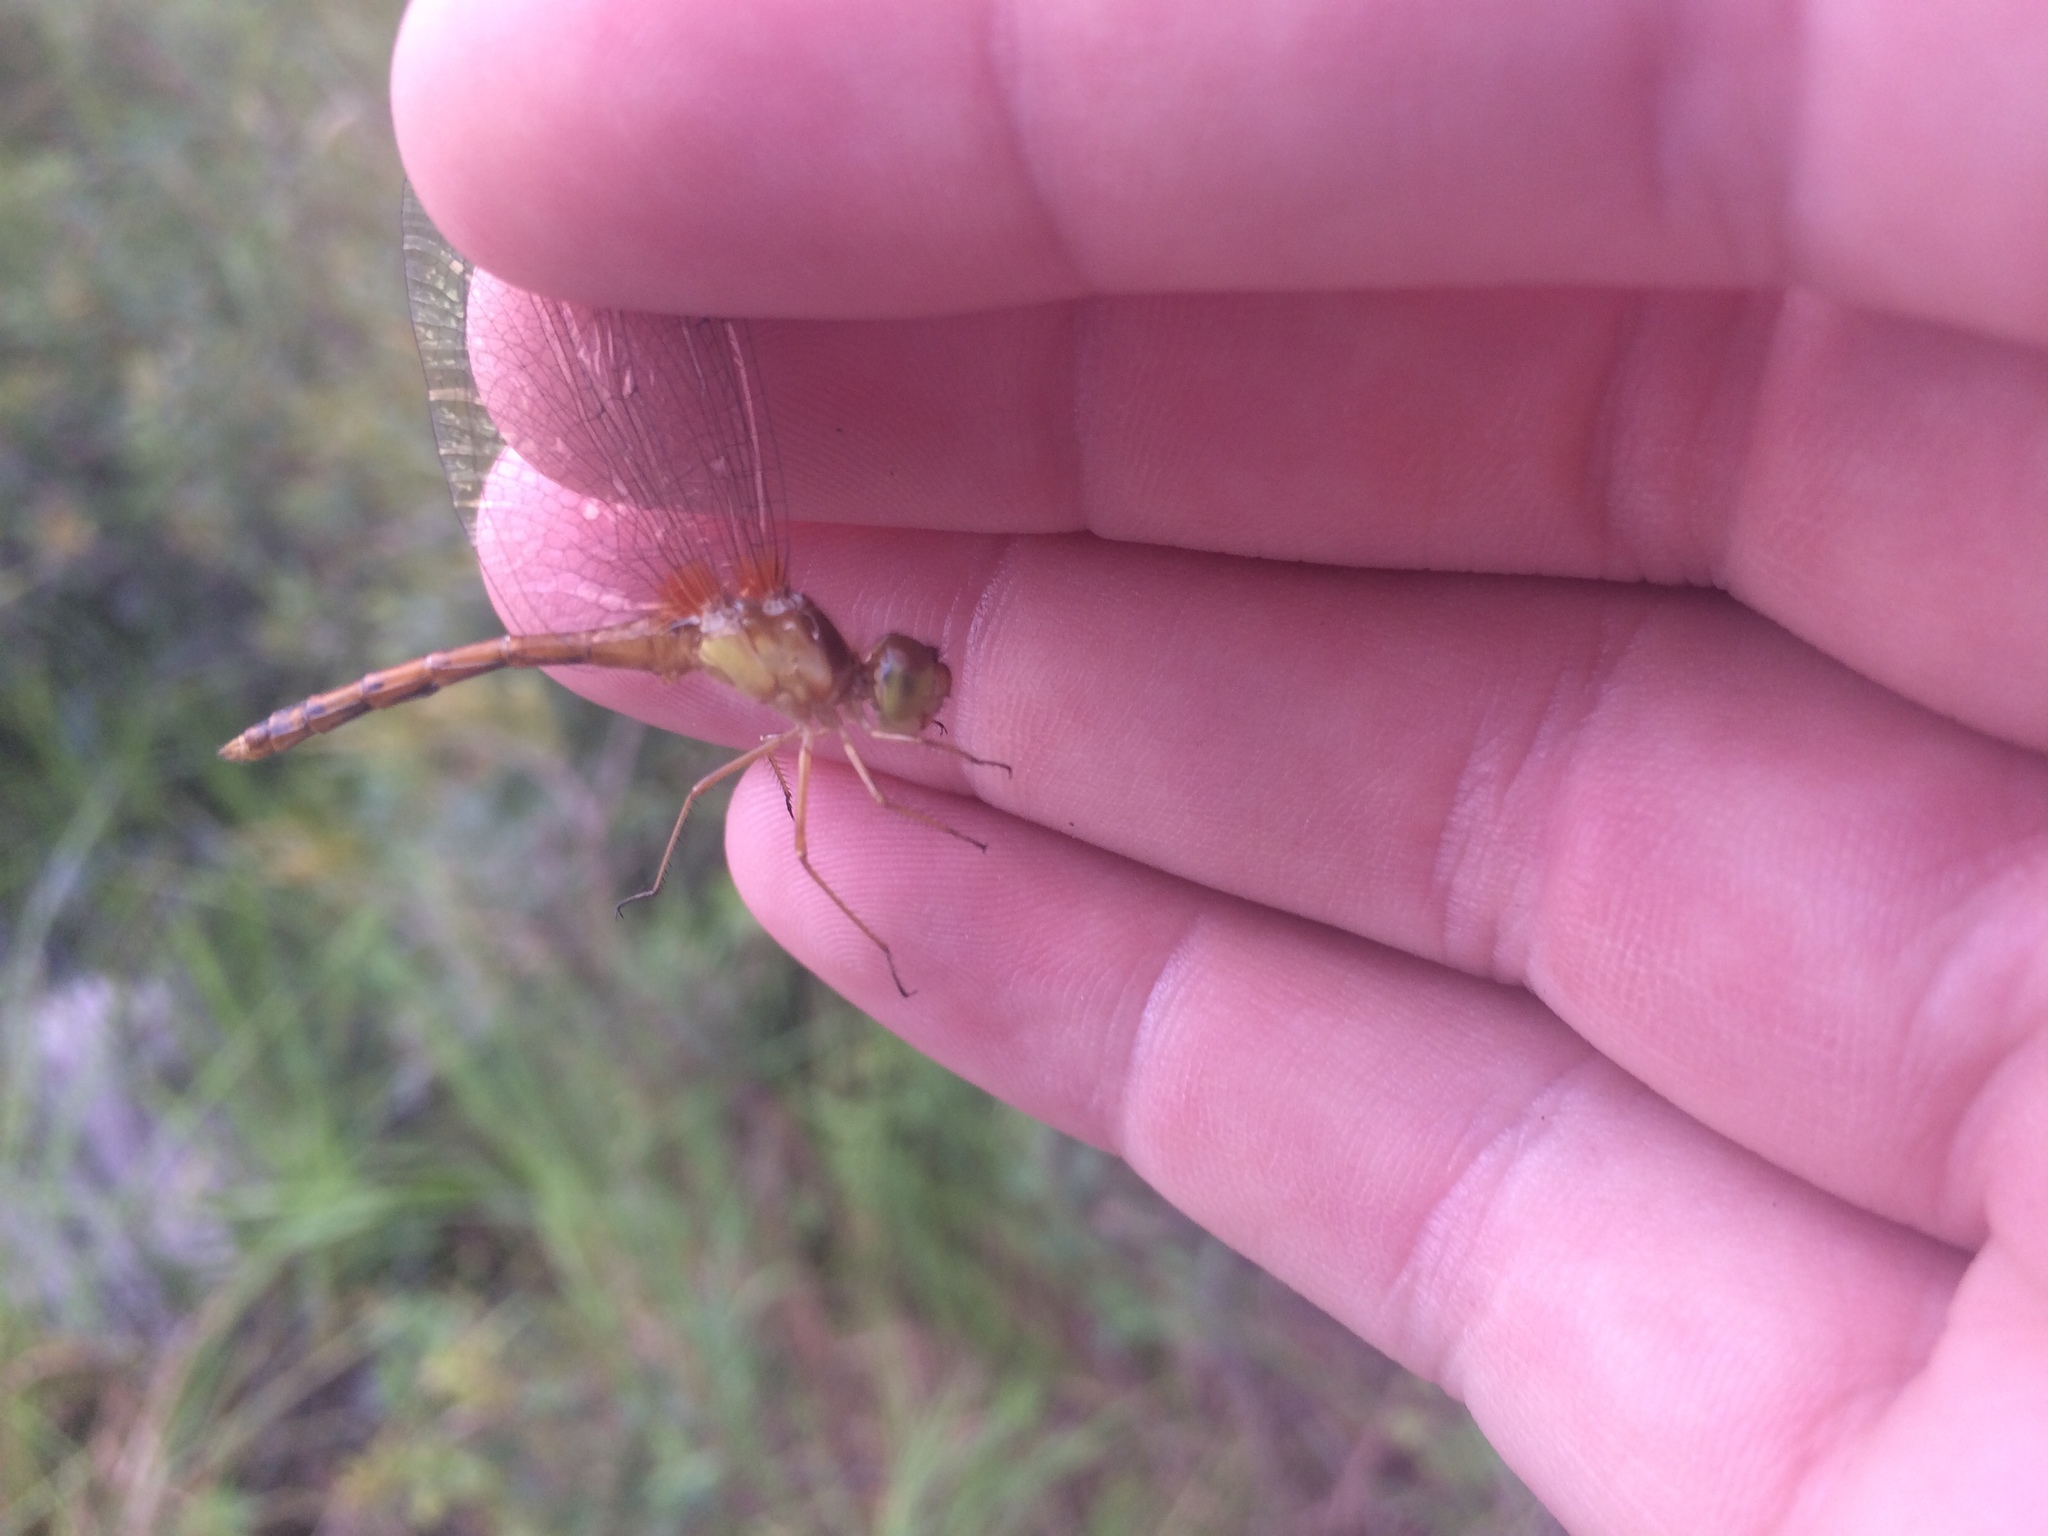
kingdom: Animalia
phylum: Arthropoda
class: Insecta
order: Odonata
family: Libellulidae
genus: Sympetrum
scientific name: Sympetrum vicinum
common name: Autumn meadowhawk
